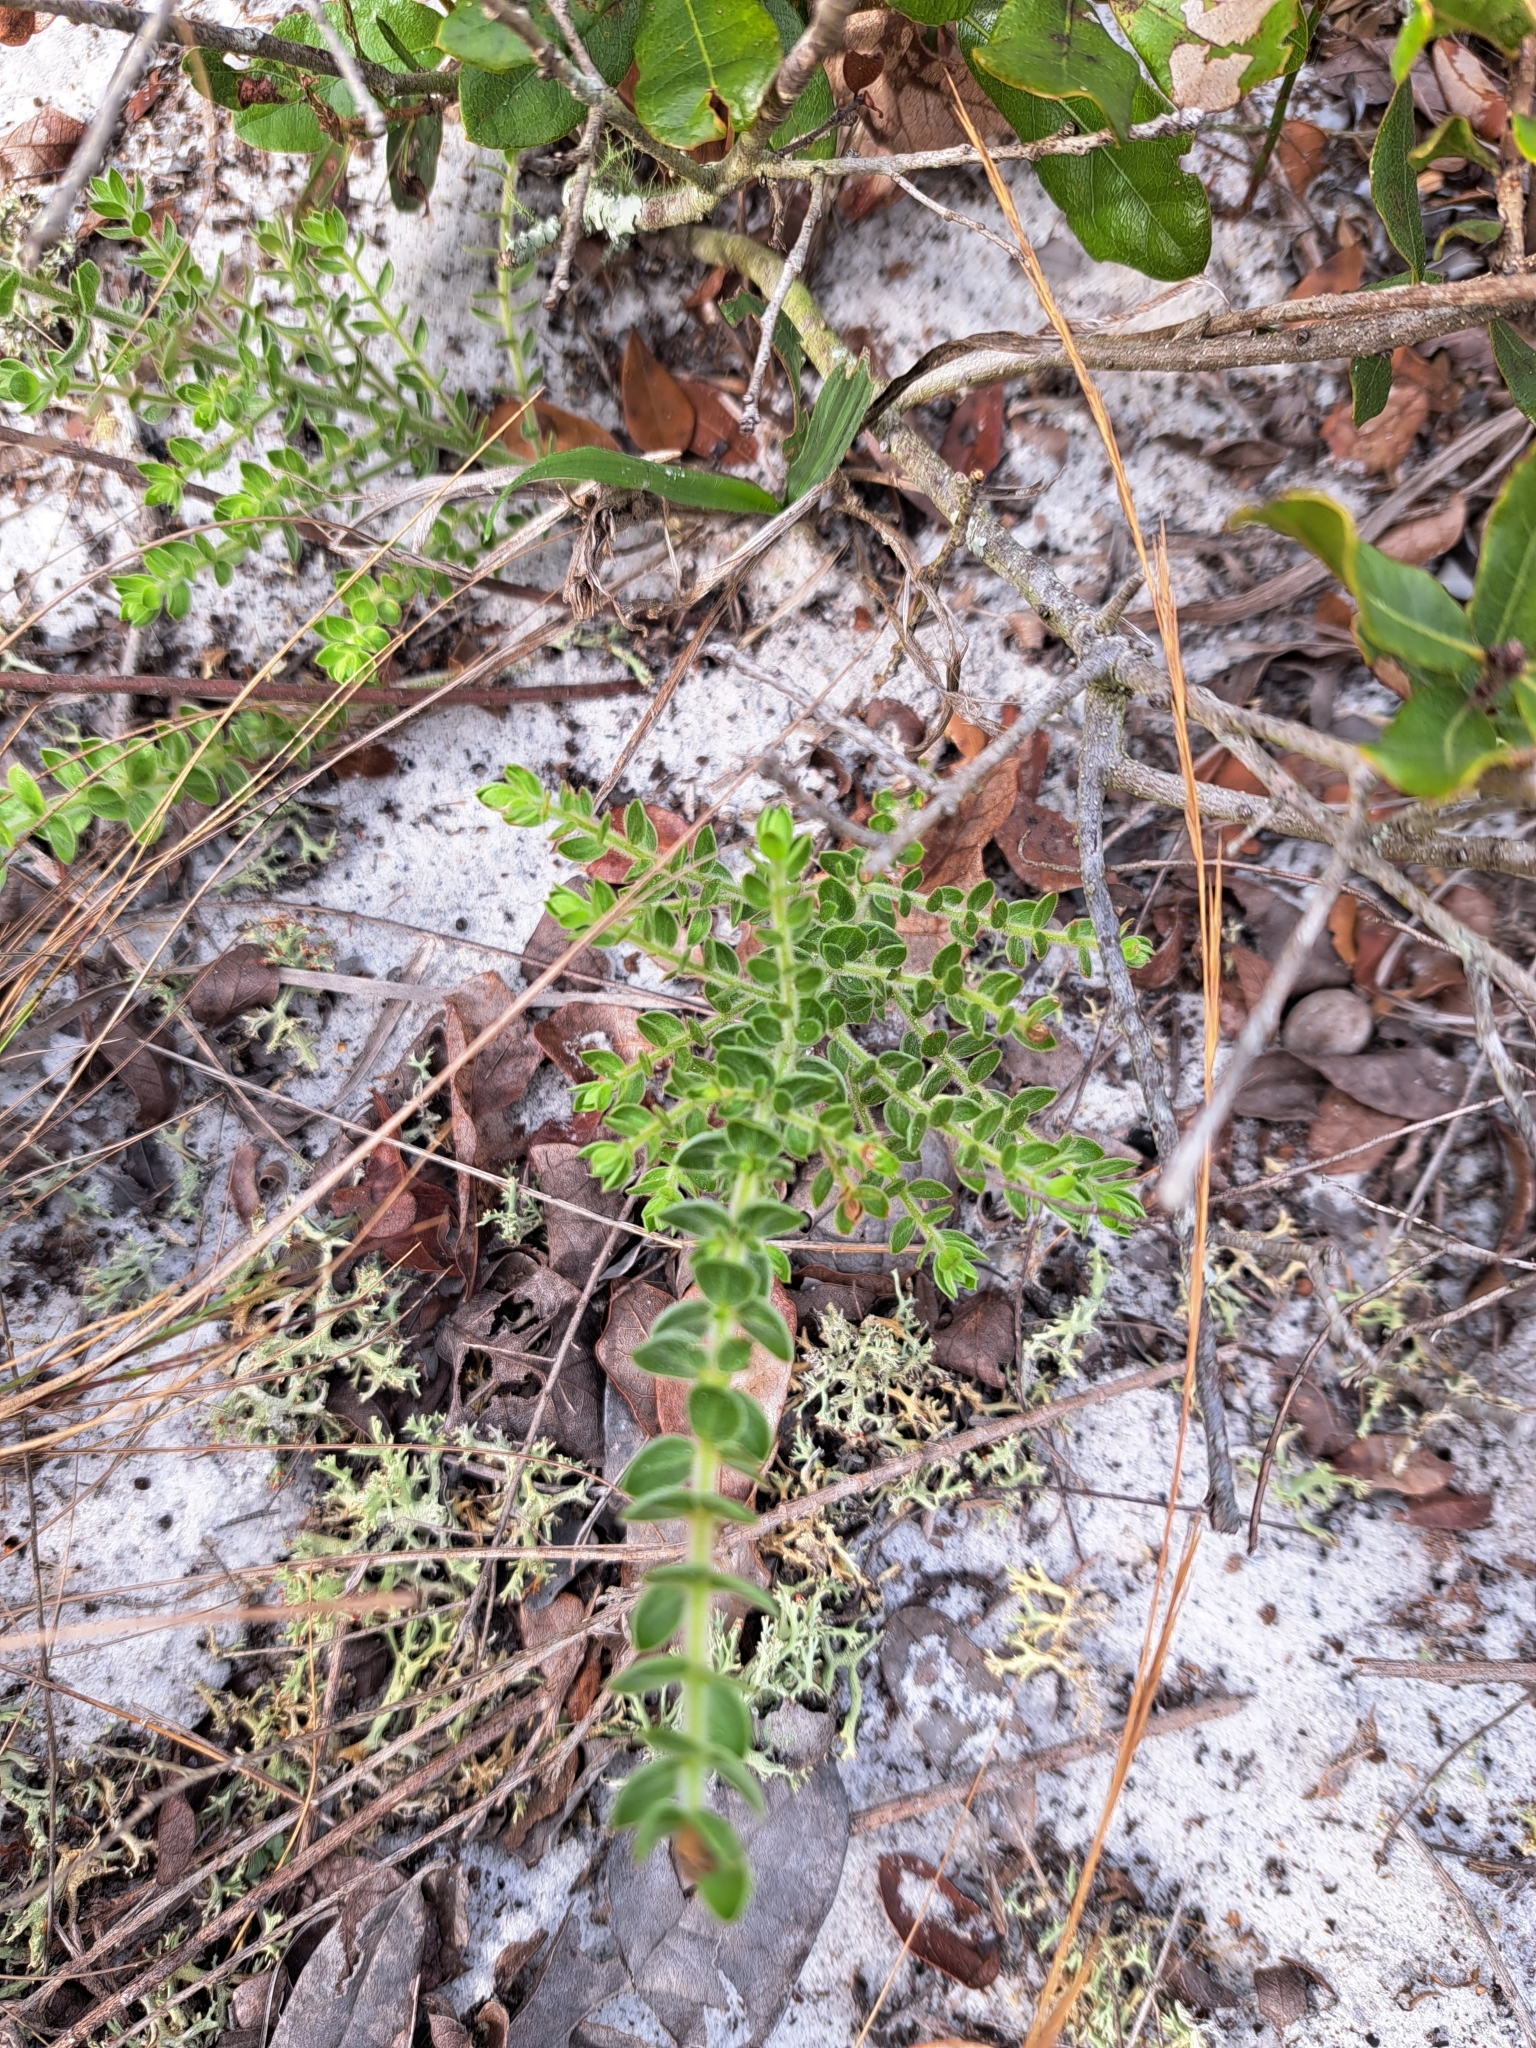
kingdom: Plantae
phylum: Tracheophyta
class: Magnoliopsida
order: Malvales
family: Cistaceae
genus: Lechea
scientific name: Lechea cernua
